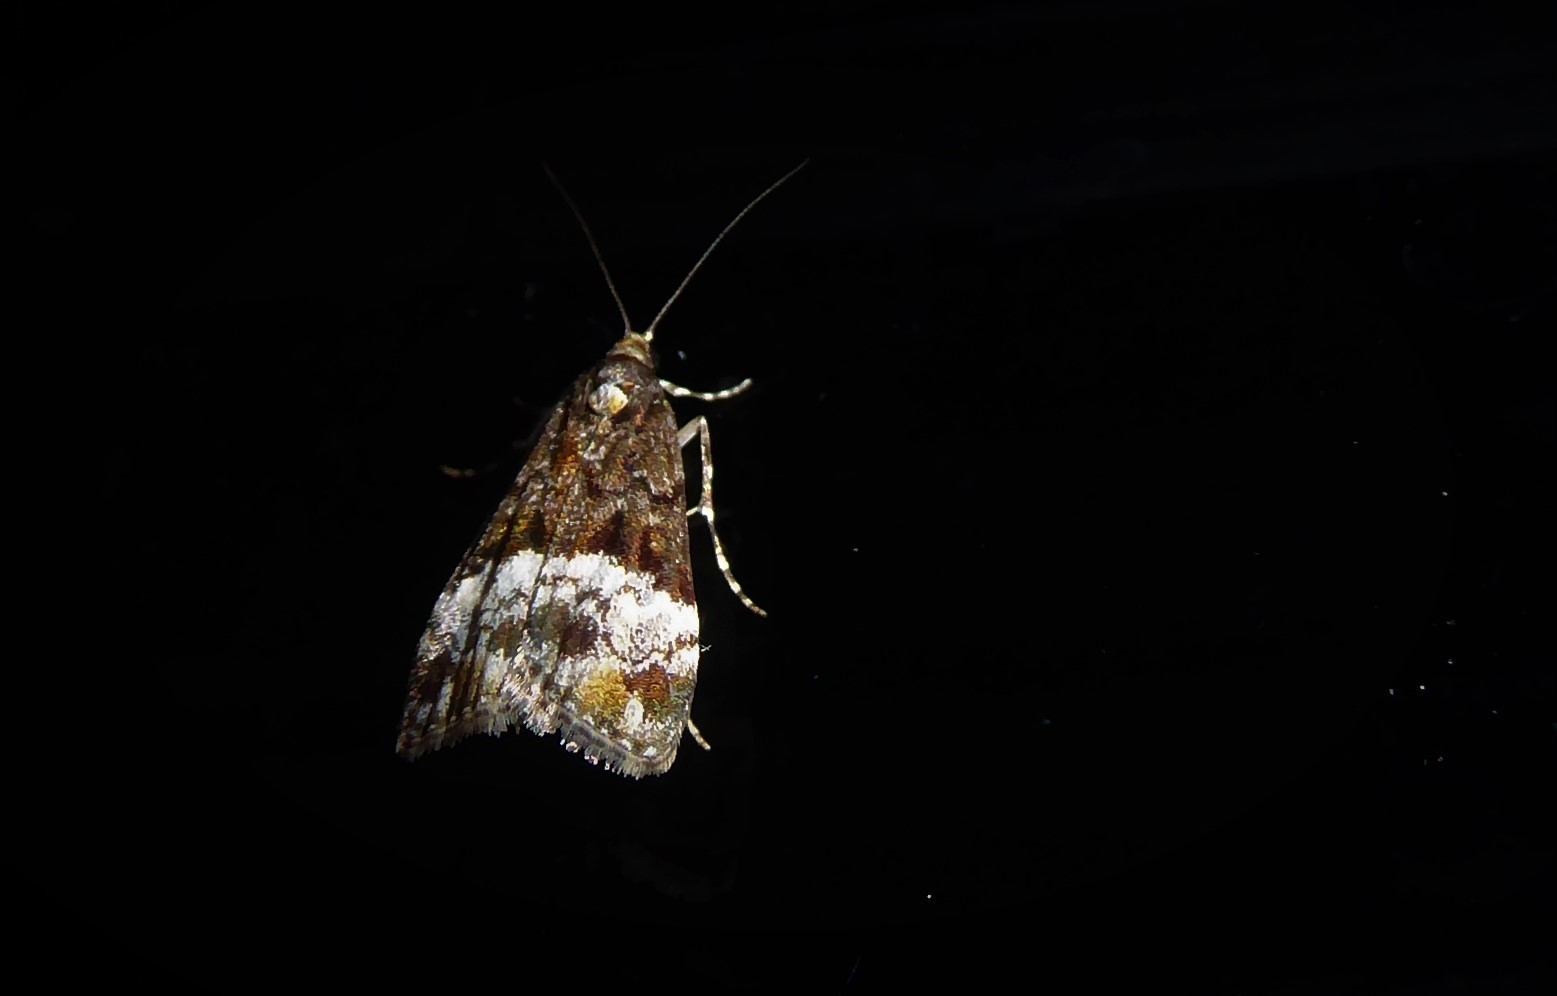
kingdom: Animalia
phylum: Arthropoda
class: Insecta
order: Lepidoptera
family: Crambidae
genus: Scoparia
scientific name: Scoparia minusculalis
